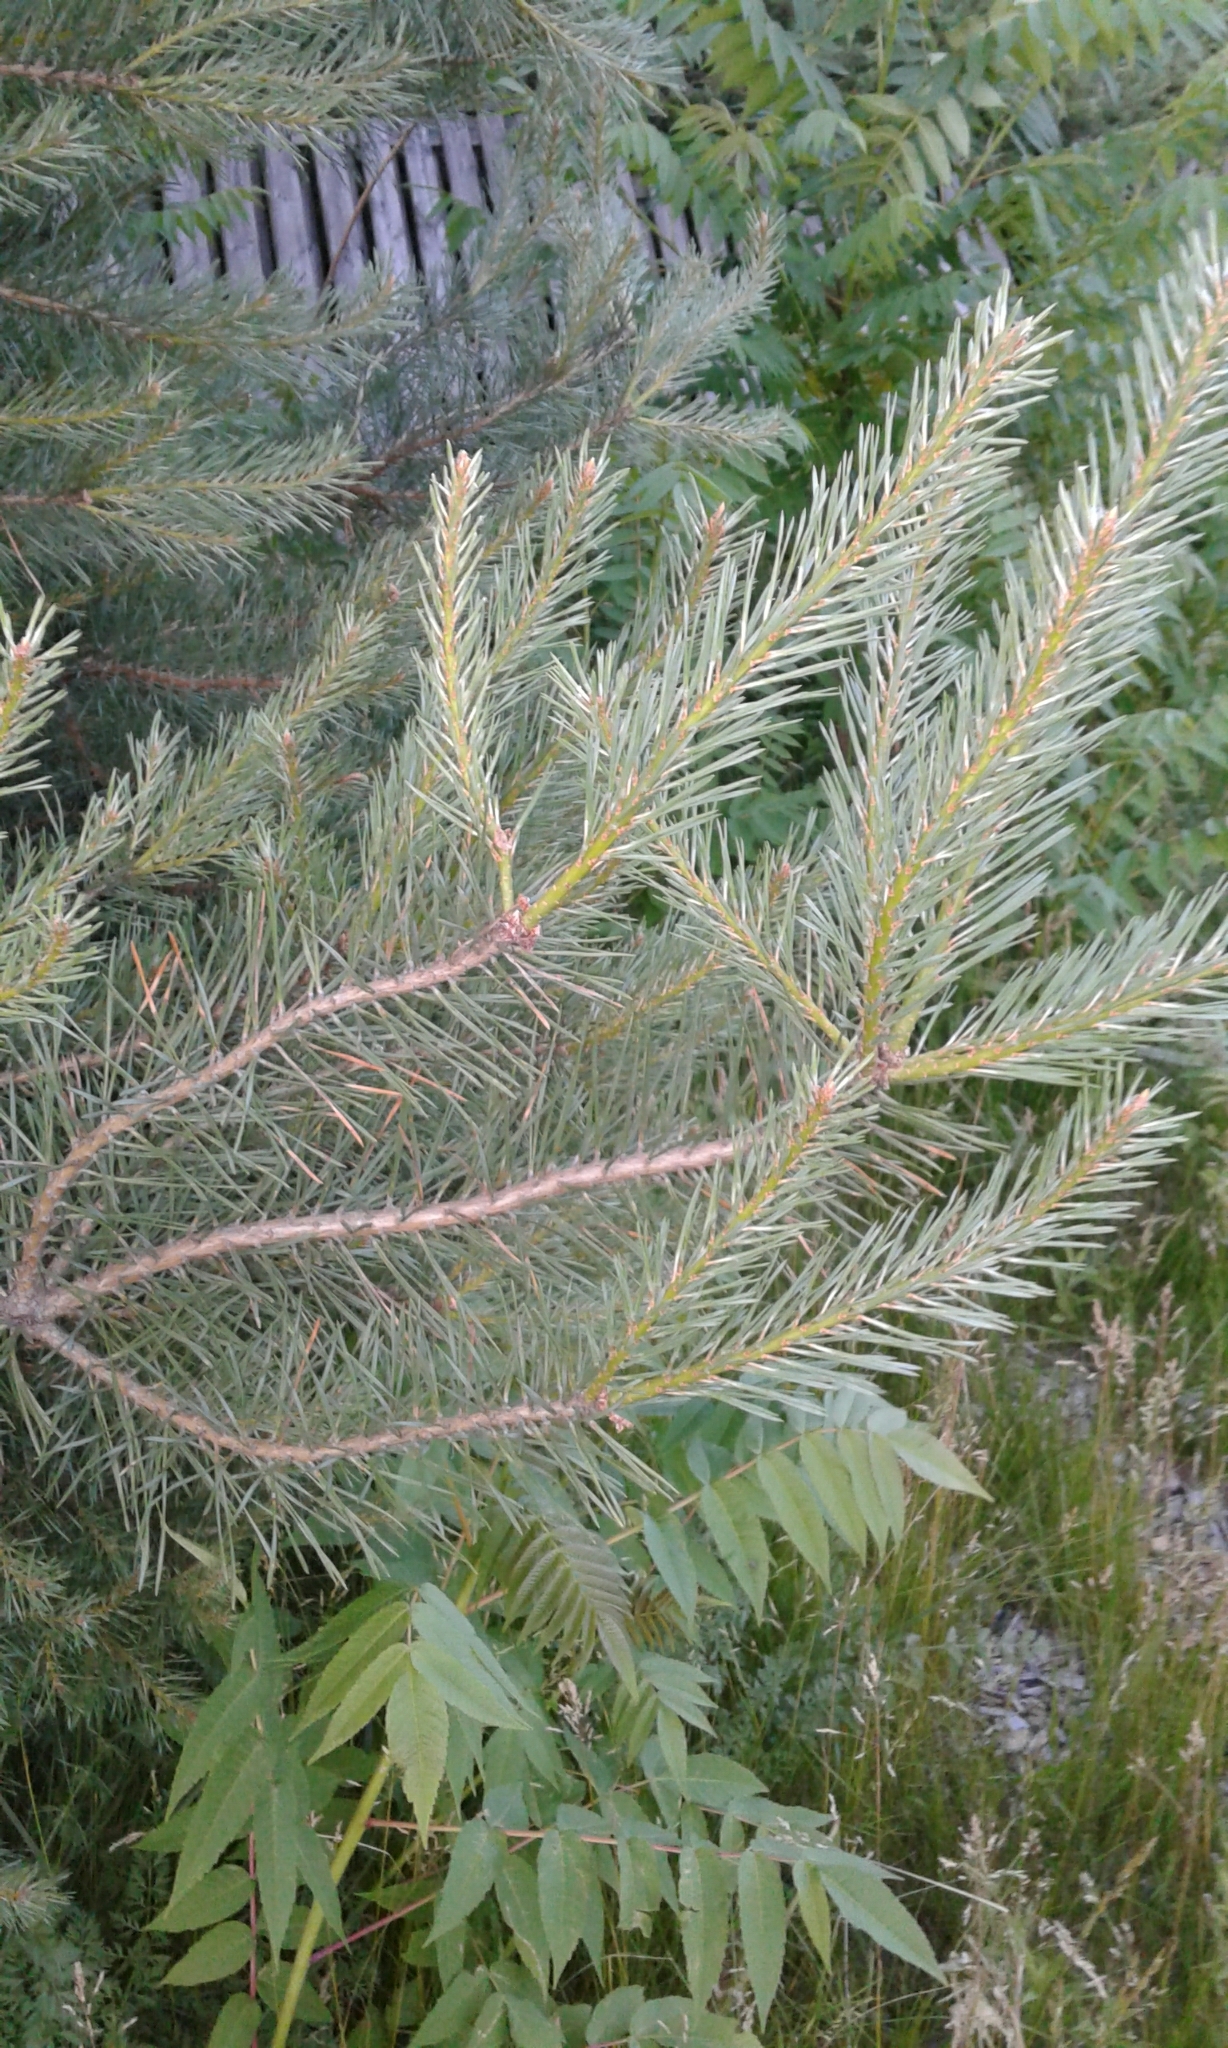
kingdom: Plantae
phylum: Tracheophyta
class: Pinopsida
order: Pinales
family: Pinaceae
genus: Pinus
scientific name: Pinus sylvestris
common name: Scots pine
